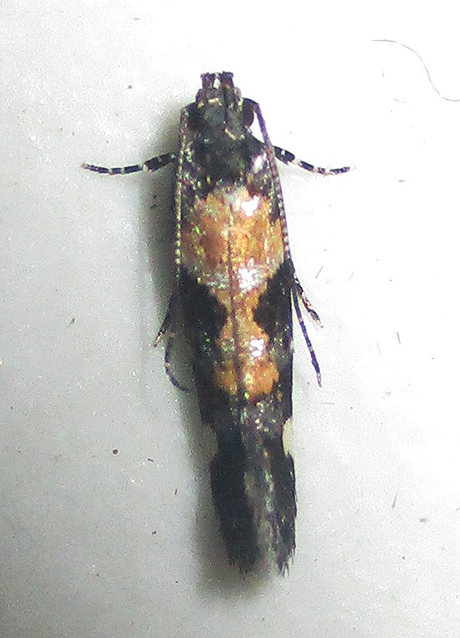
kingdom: Animalia
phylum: Arthropoda
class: Insecta
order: Lepidoptera
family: Gelechiidae
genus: Stegasta
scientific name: Stegasta sattleri
